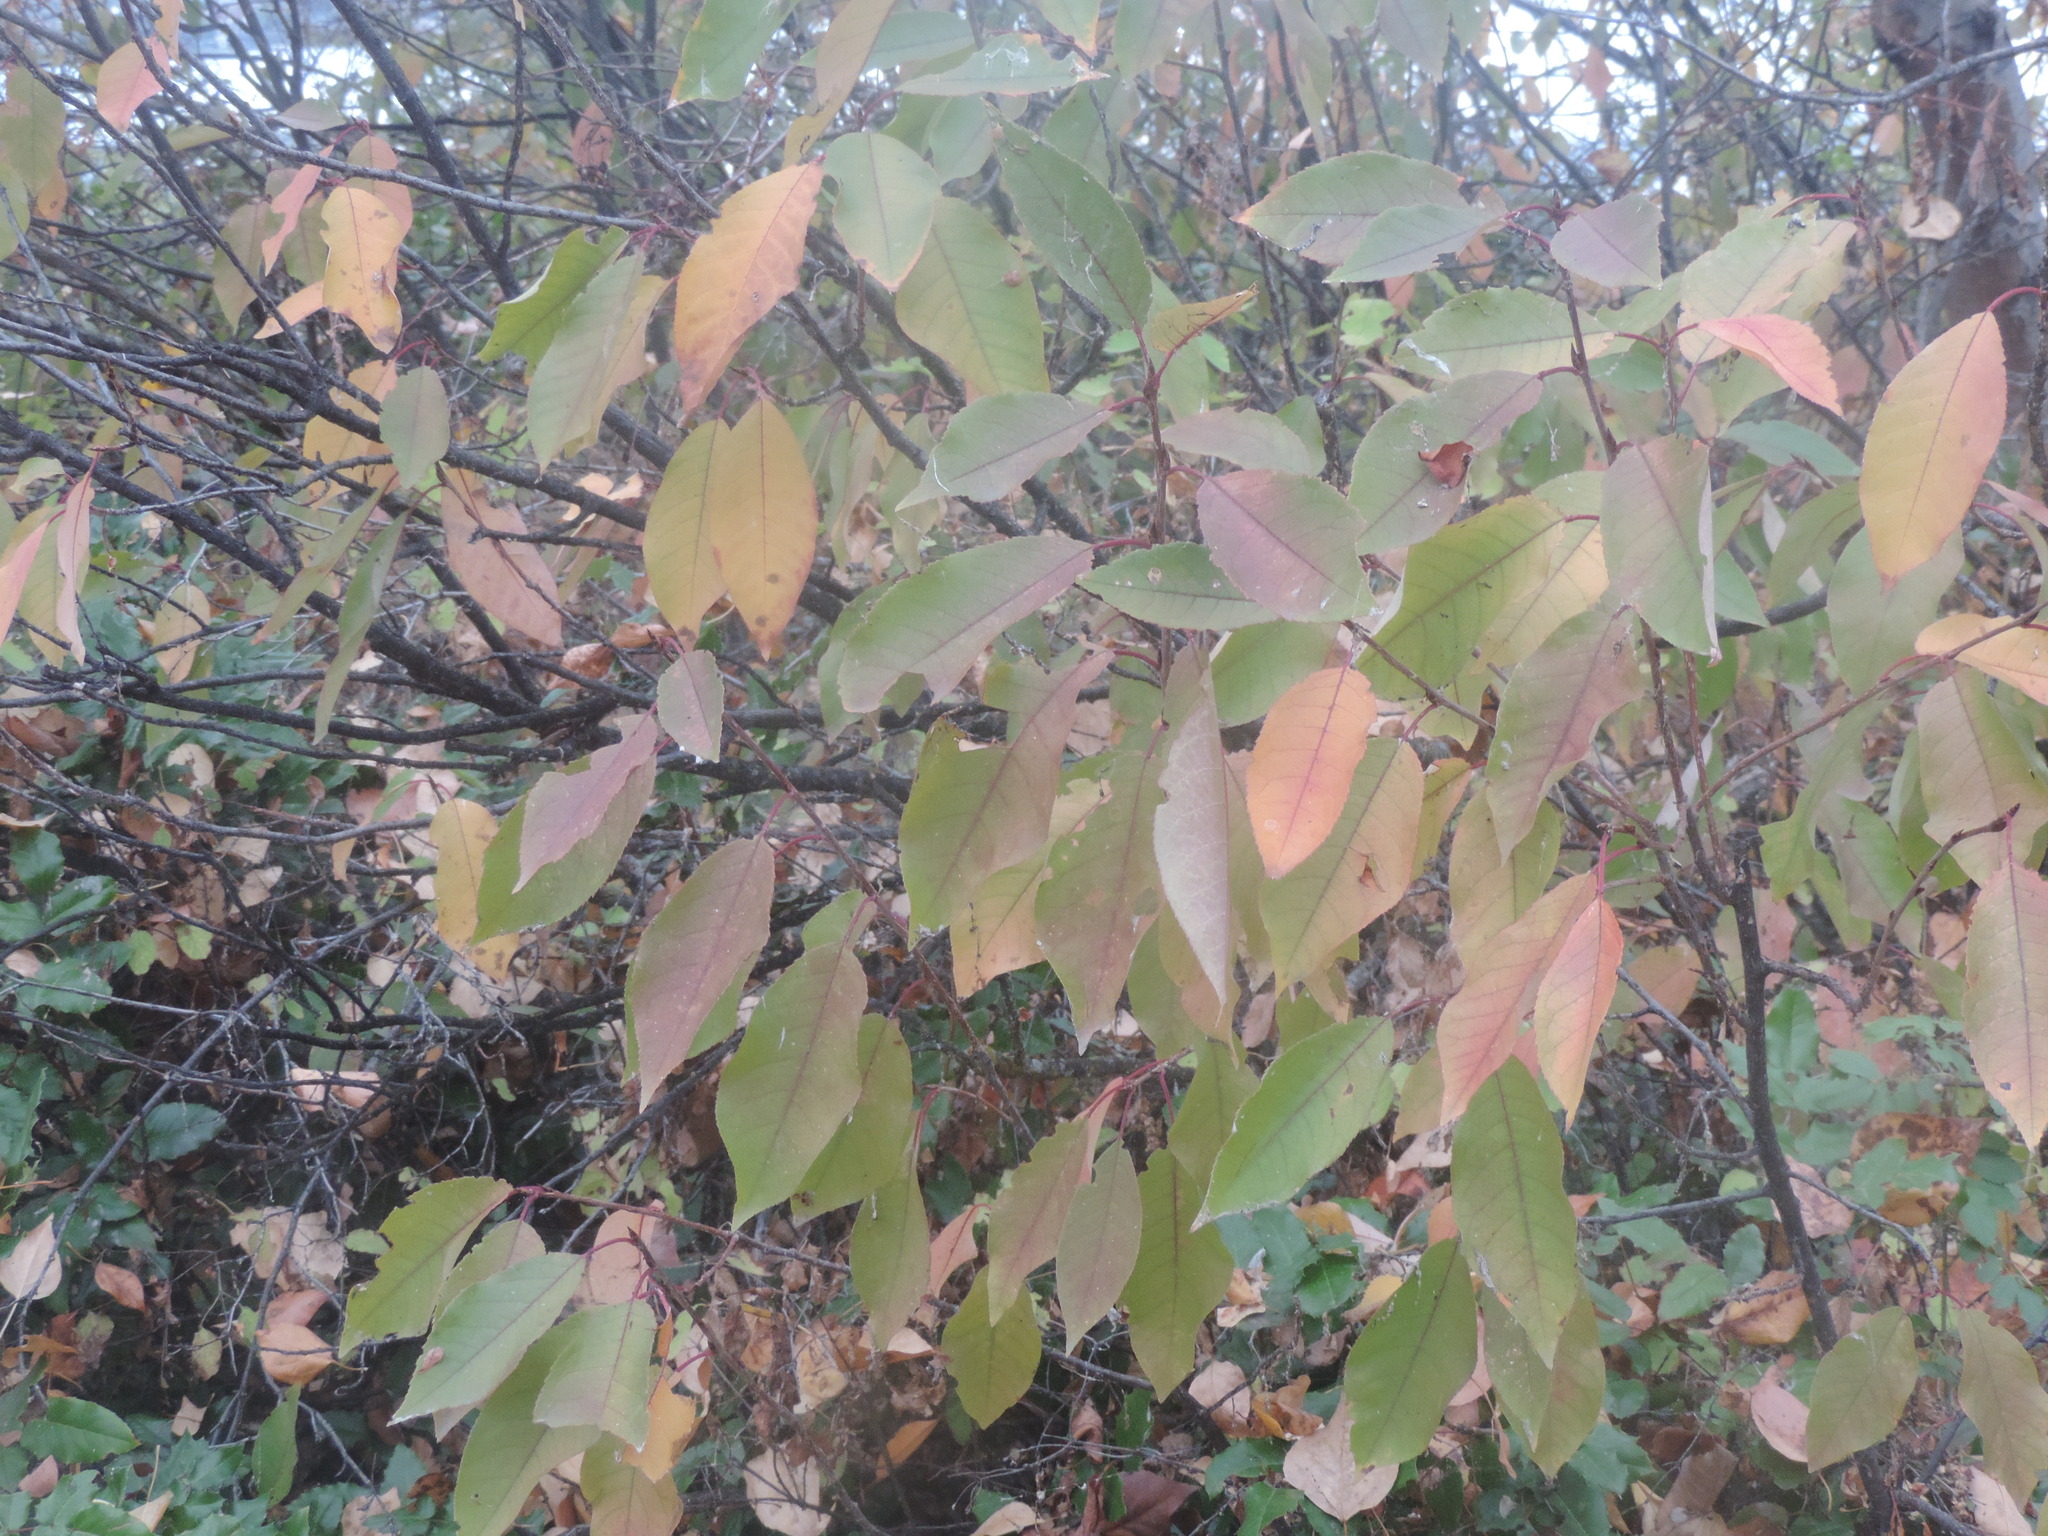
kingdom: Plantae
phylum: Tracheophyta
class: Magnoliopsida
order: Rosales
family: Rosaceae
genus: Prunus
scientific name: Prunus virginiana
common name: Chokecherry
